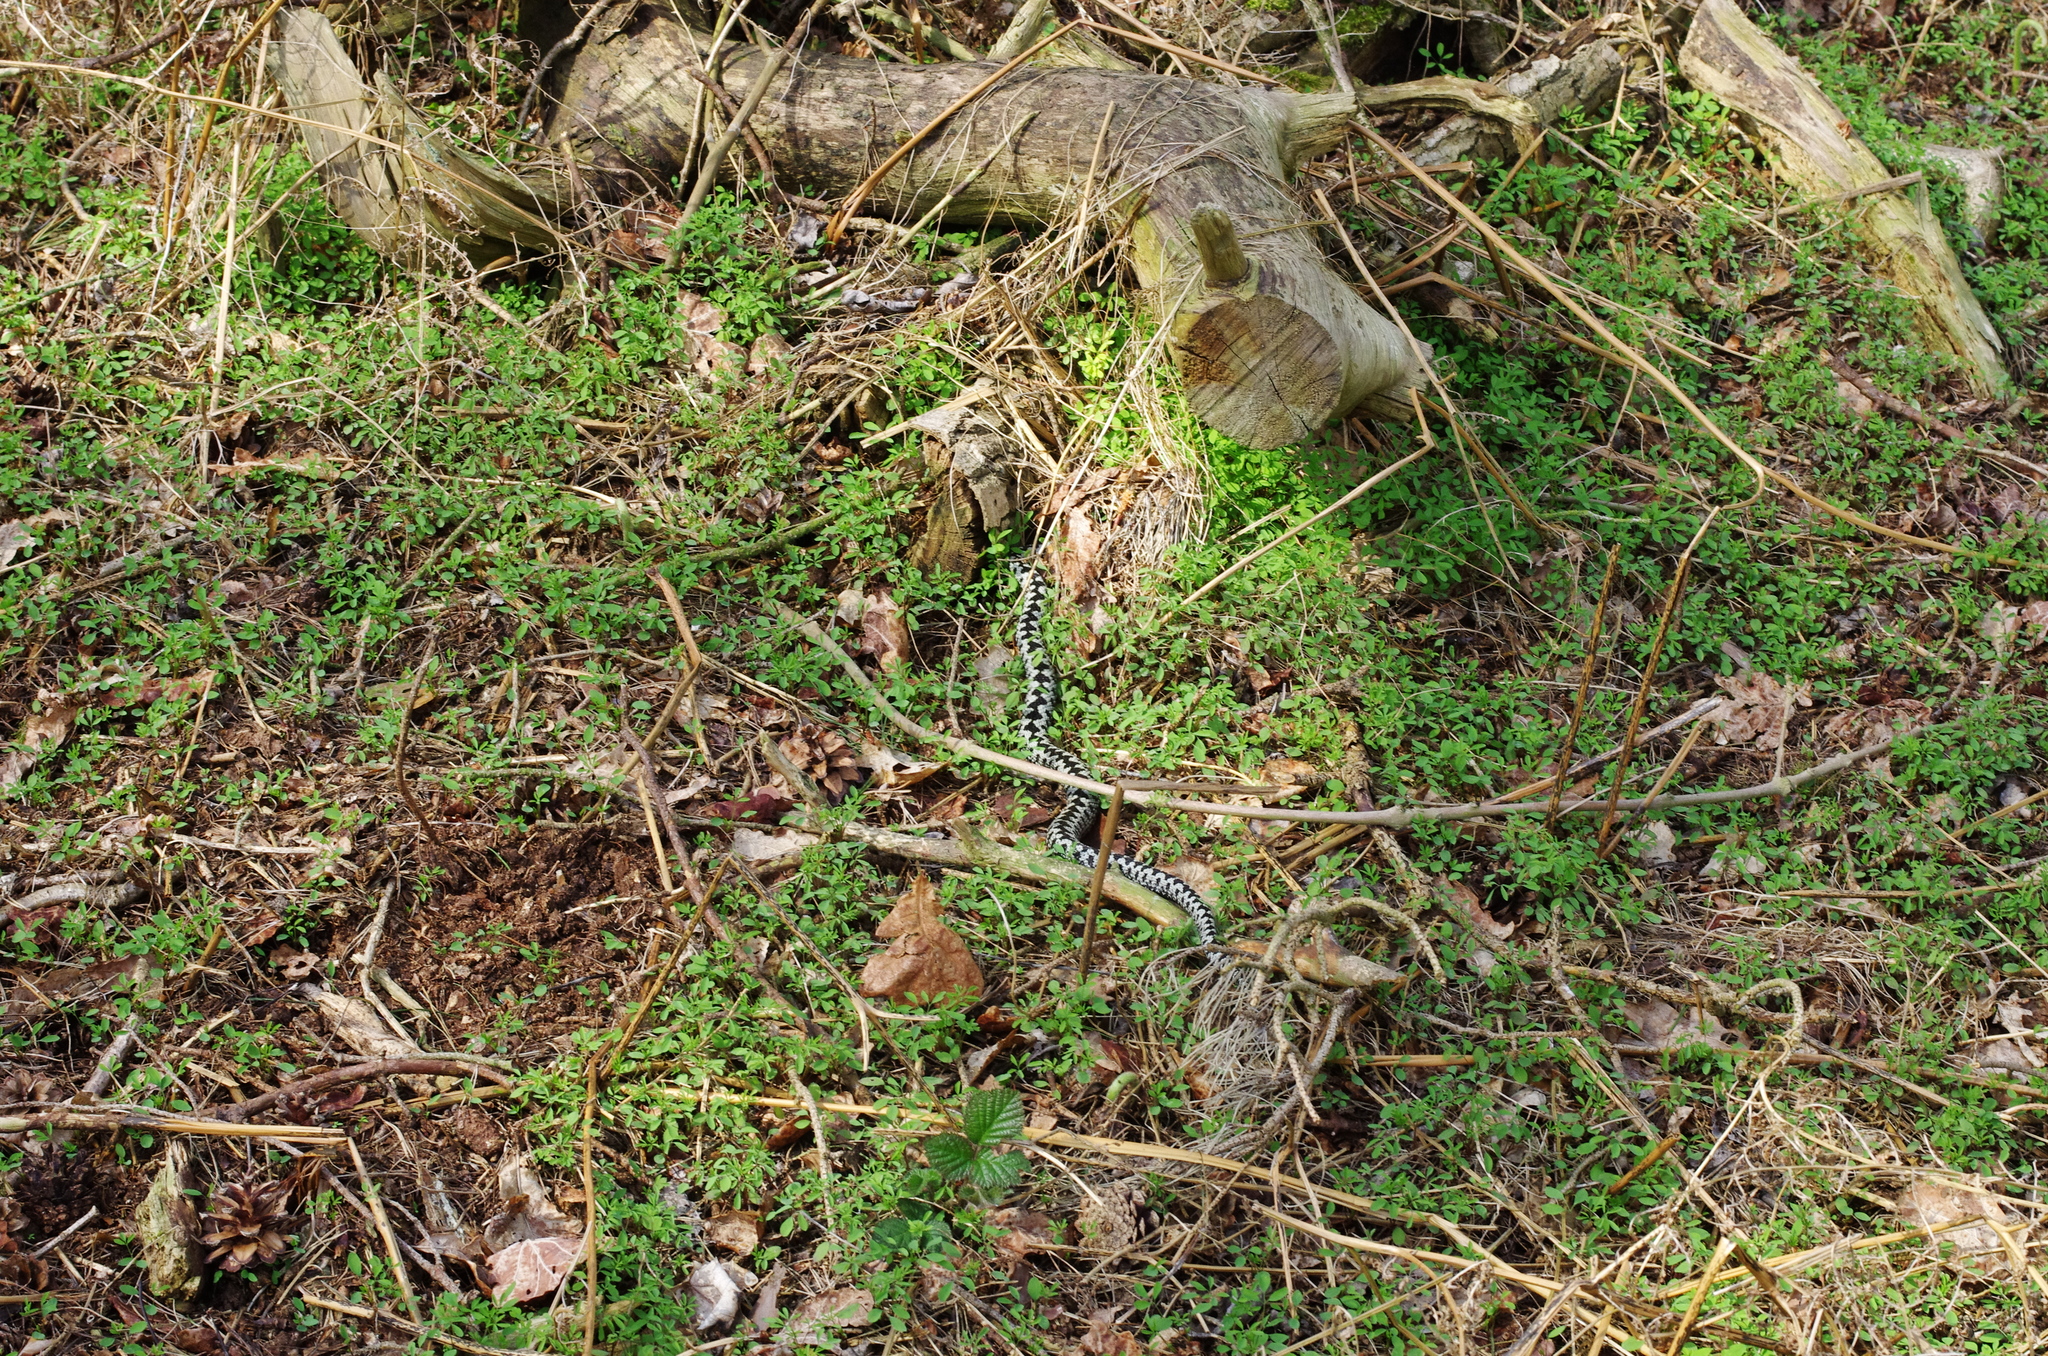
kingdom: Animalia
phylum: Chordata
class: Squamata
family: Viperidae
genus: Vipera
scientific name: Vipera berus
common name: Adder
